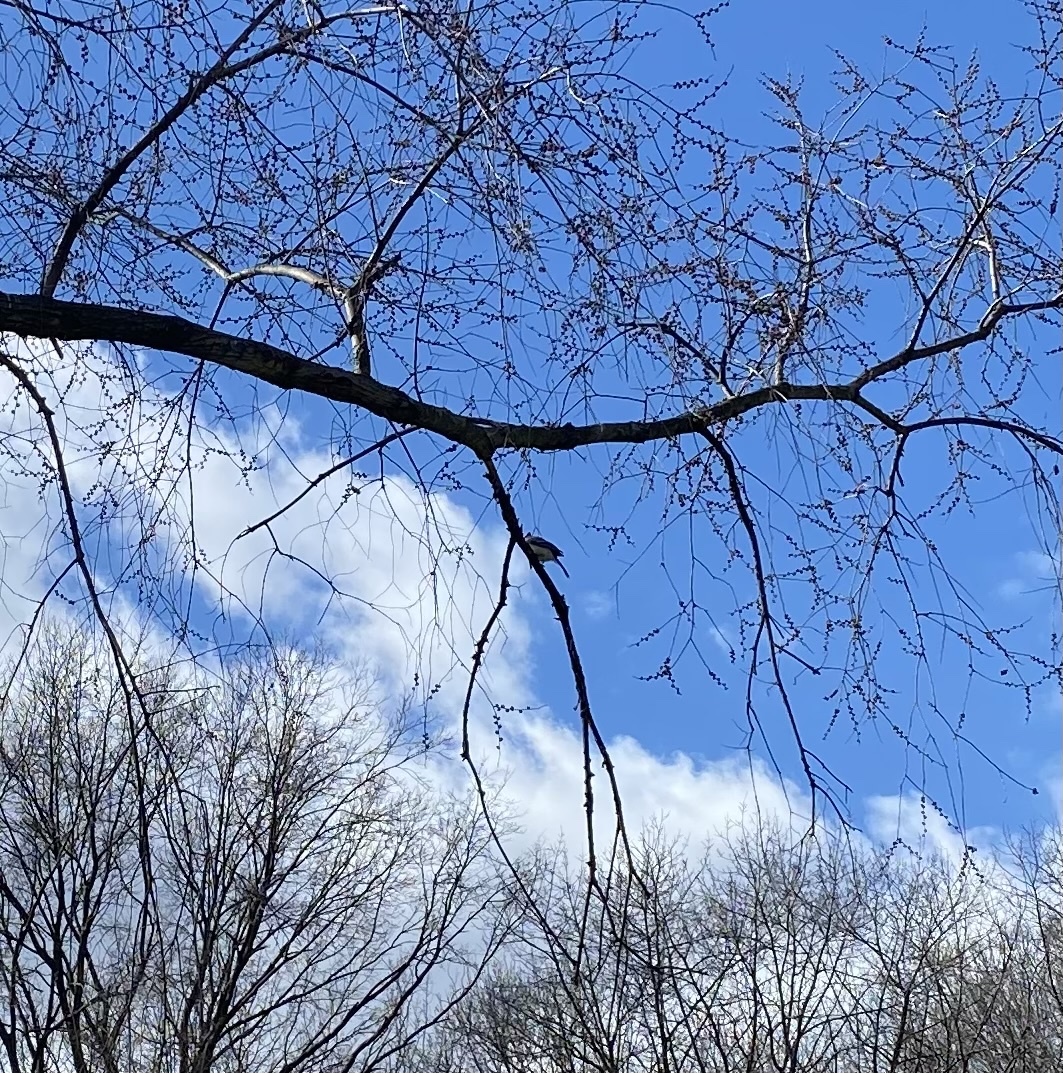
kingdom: Animalia
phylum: Chordata
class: Aves
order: Passeriformes
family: Corvidae
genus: Cyanocitta
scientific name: Cyanocitta cristata
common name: Blue jay
